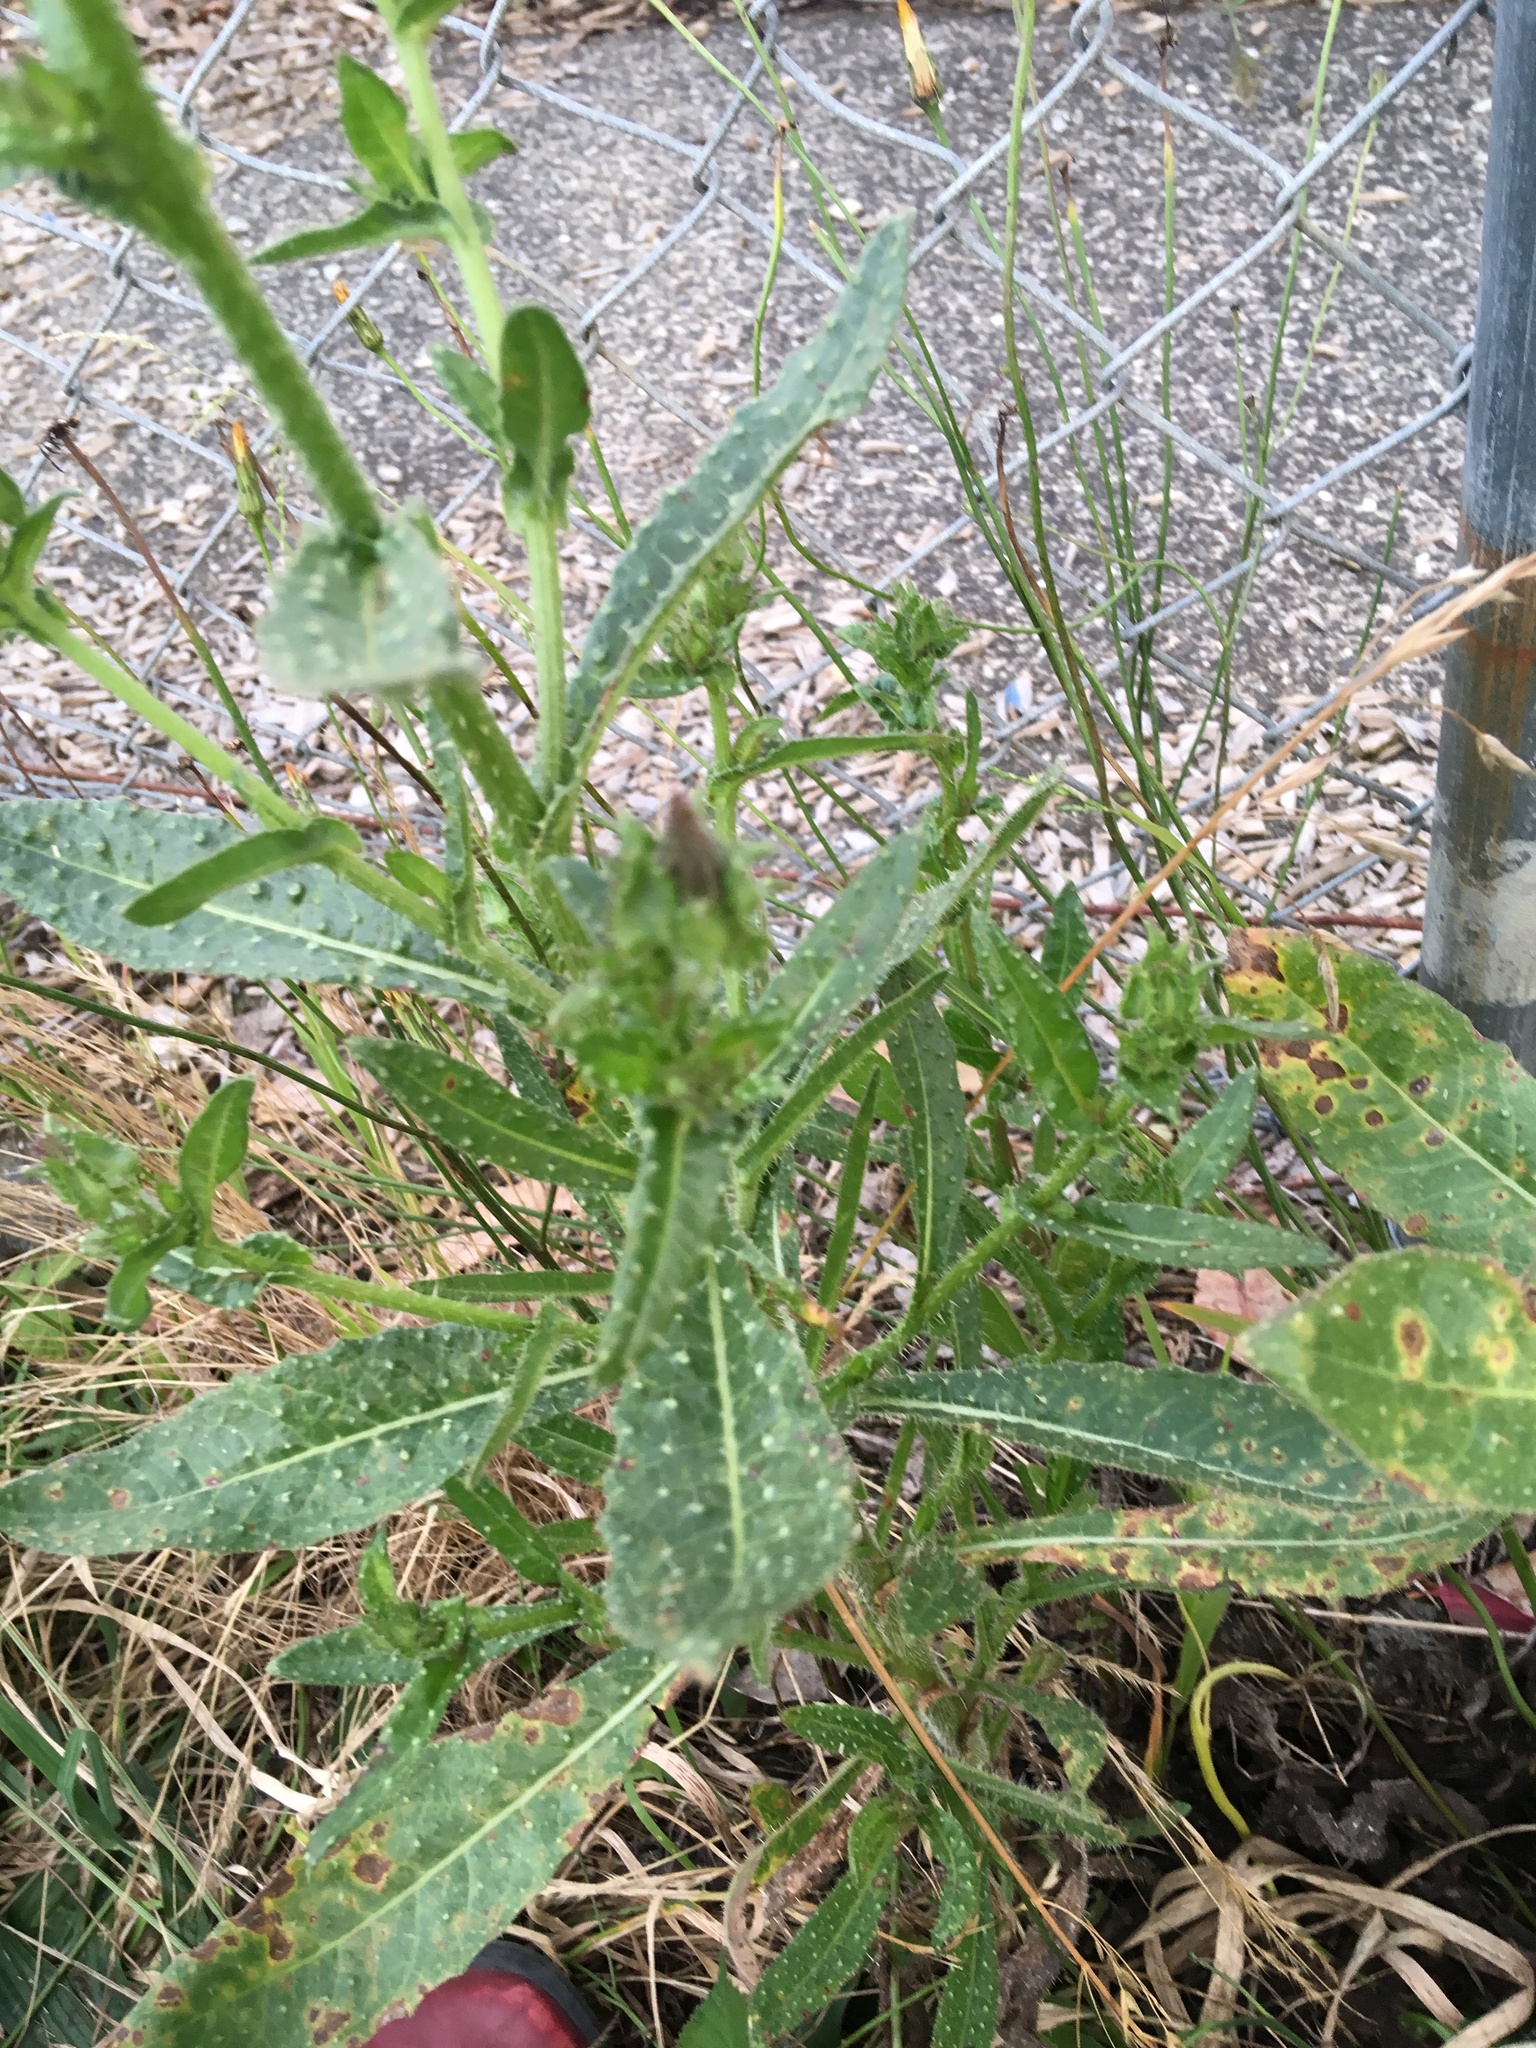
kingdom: Plantae
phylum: Tracheophyta
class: Magnoliopsida
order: Asterales
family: Asteraceae
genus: Helminthotheca
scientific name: Helminthotheca echioides
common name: Ox-tongue
